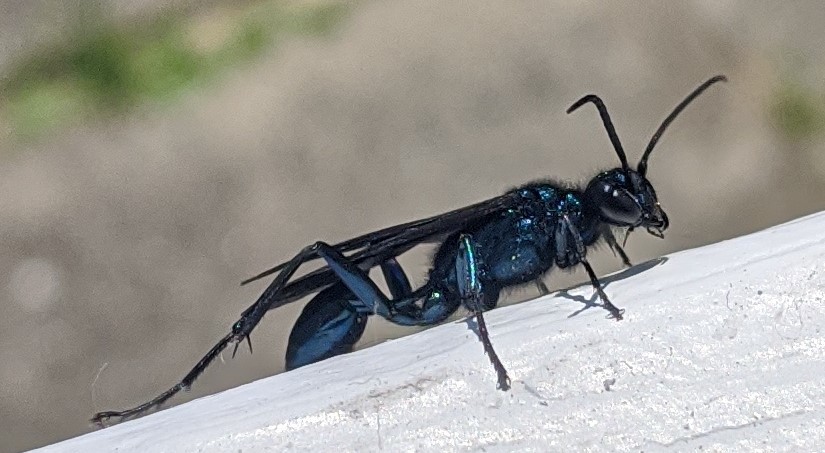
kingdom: Animalia
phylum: Arthropoda
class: Insecta
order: Hymenoptera
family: Sphecidae
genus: Chalybion
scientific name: Chalybion californicum
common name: Mud dauber
